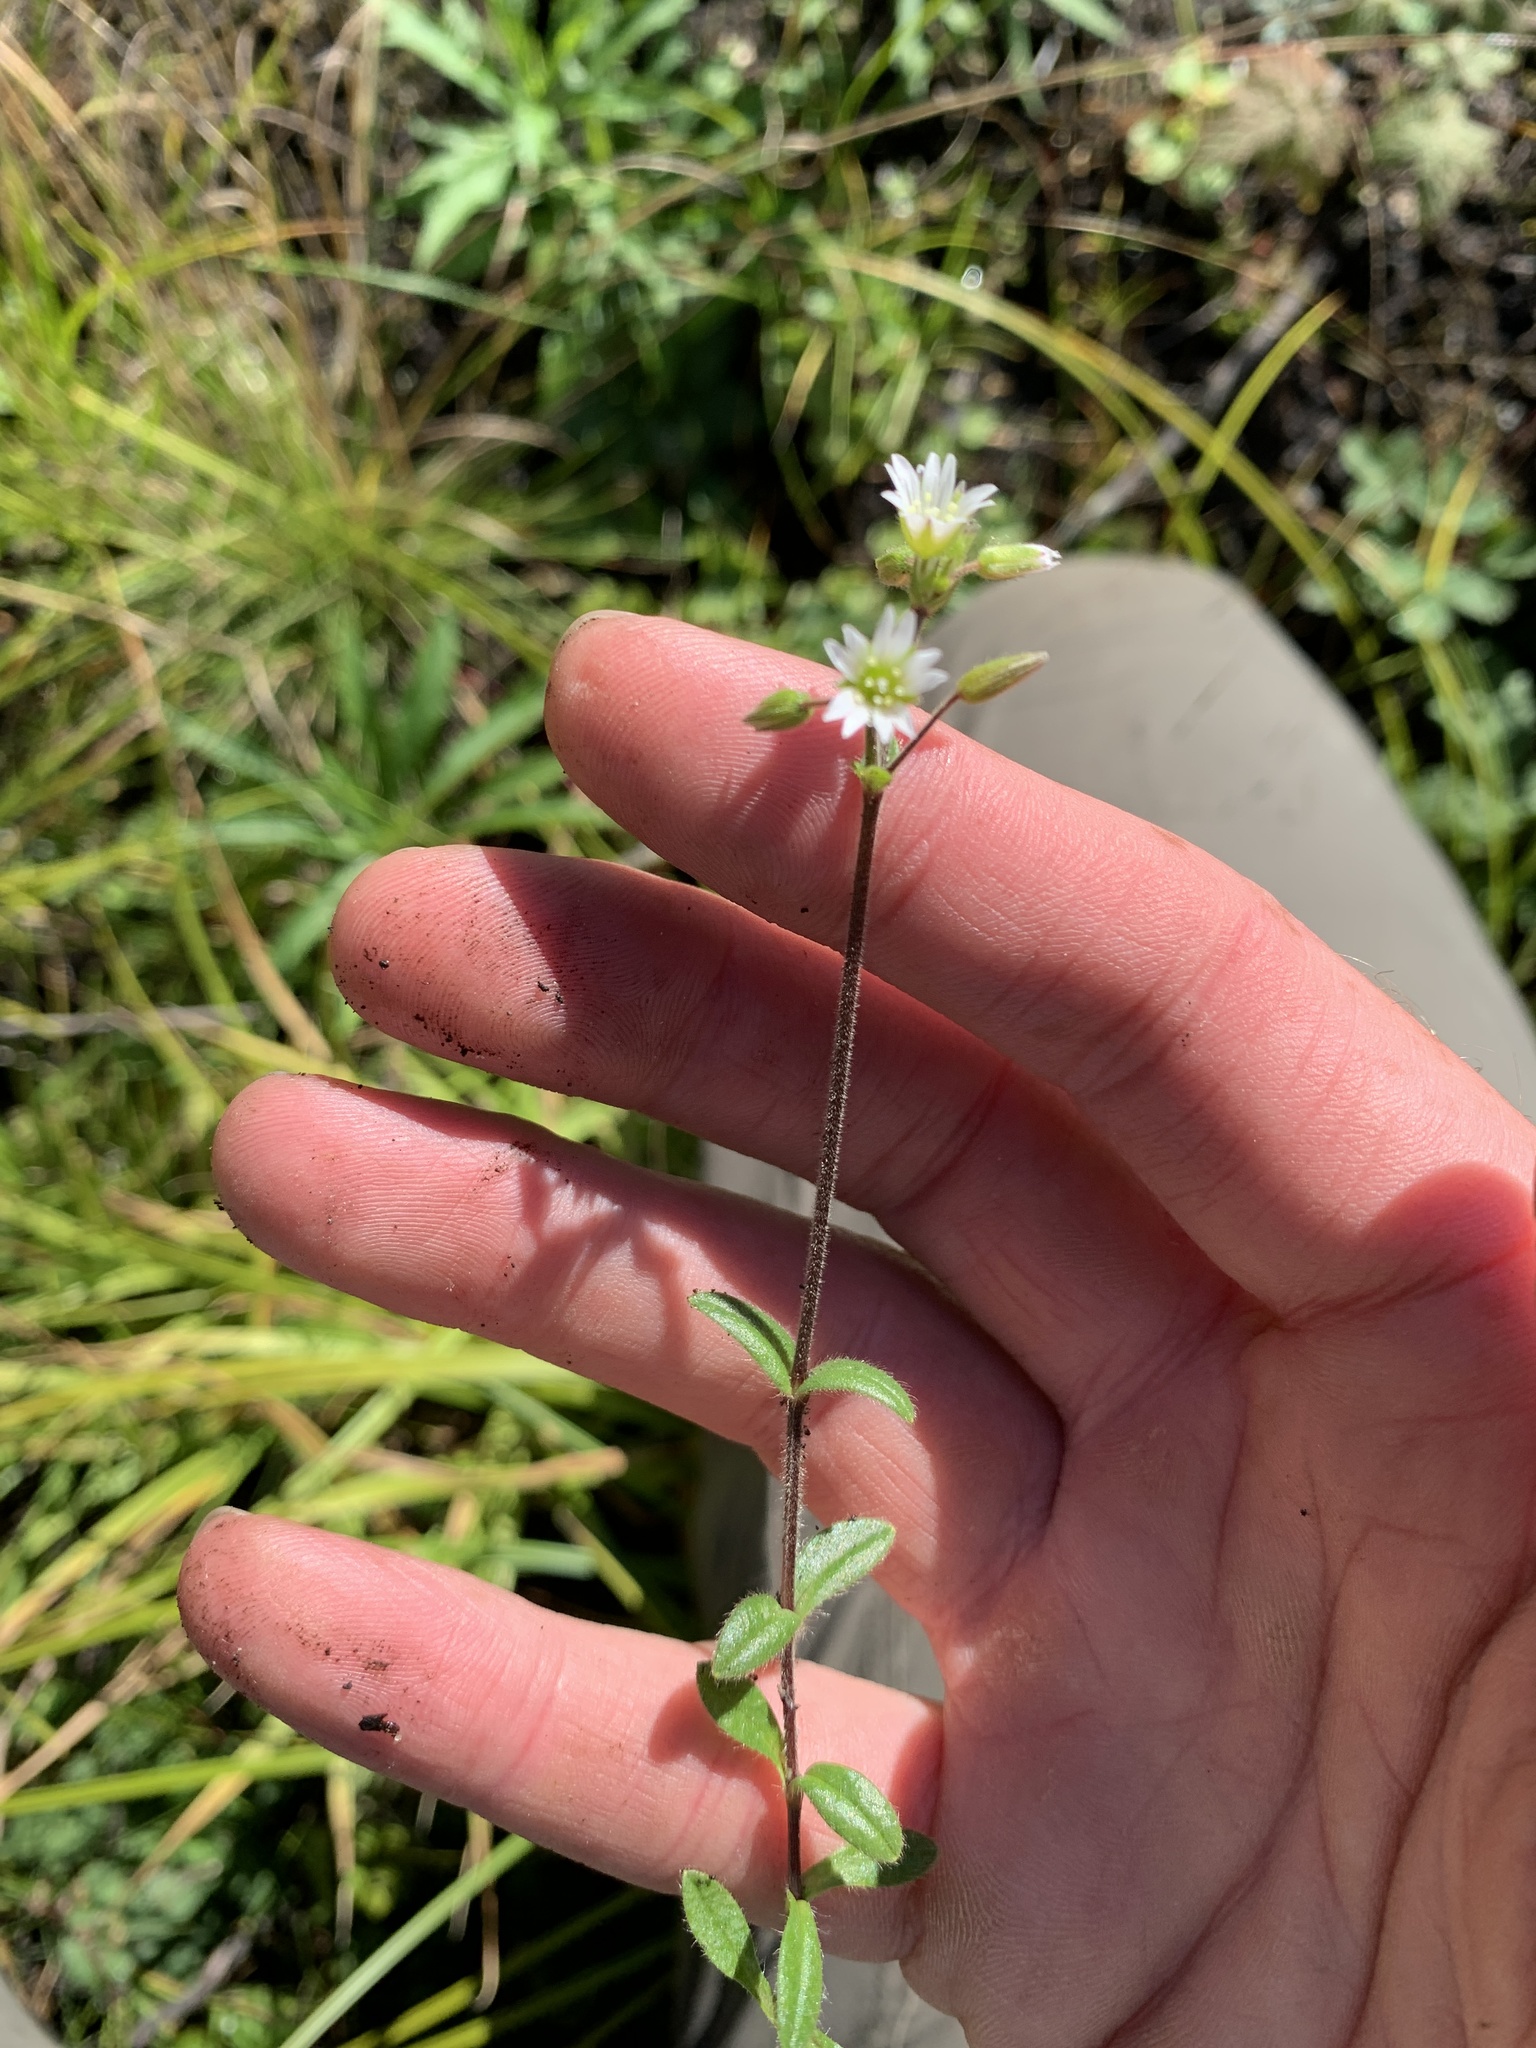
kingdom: Plantae
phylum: Tracheophyta
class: Magnoliopsida
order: Caryophyllales
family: Caryophyllaceae
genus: Cerastium
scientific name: Cerastium fontanum
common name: Common mouse-ear
